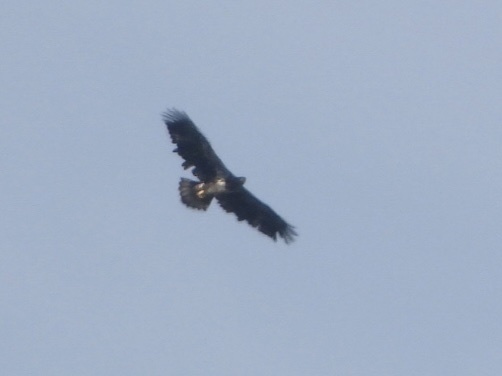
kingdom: Animalia
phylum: Chordata
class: Aves
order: Accipitriformes
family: Accipitridae
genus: Haliaeetus
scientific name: Haliaeetus leucocephalus
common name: Bald eagle
